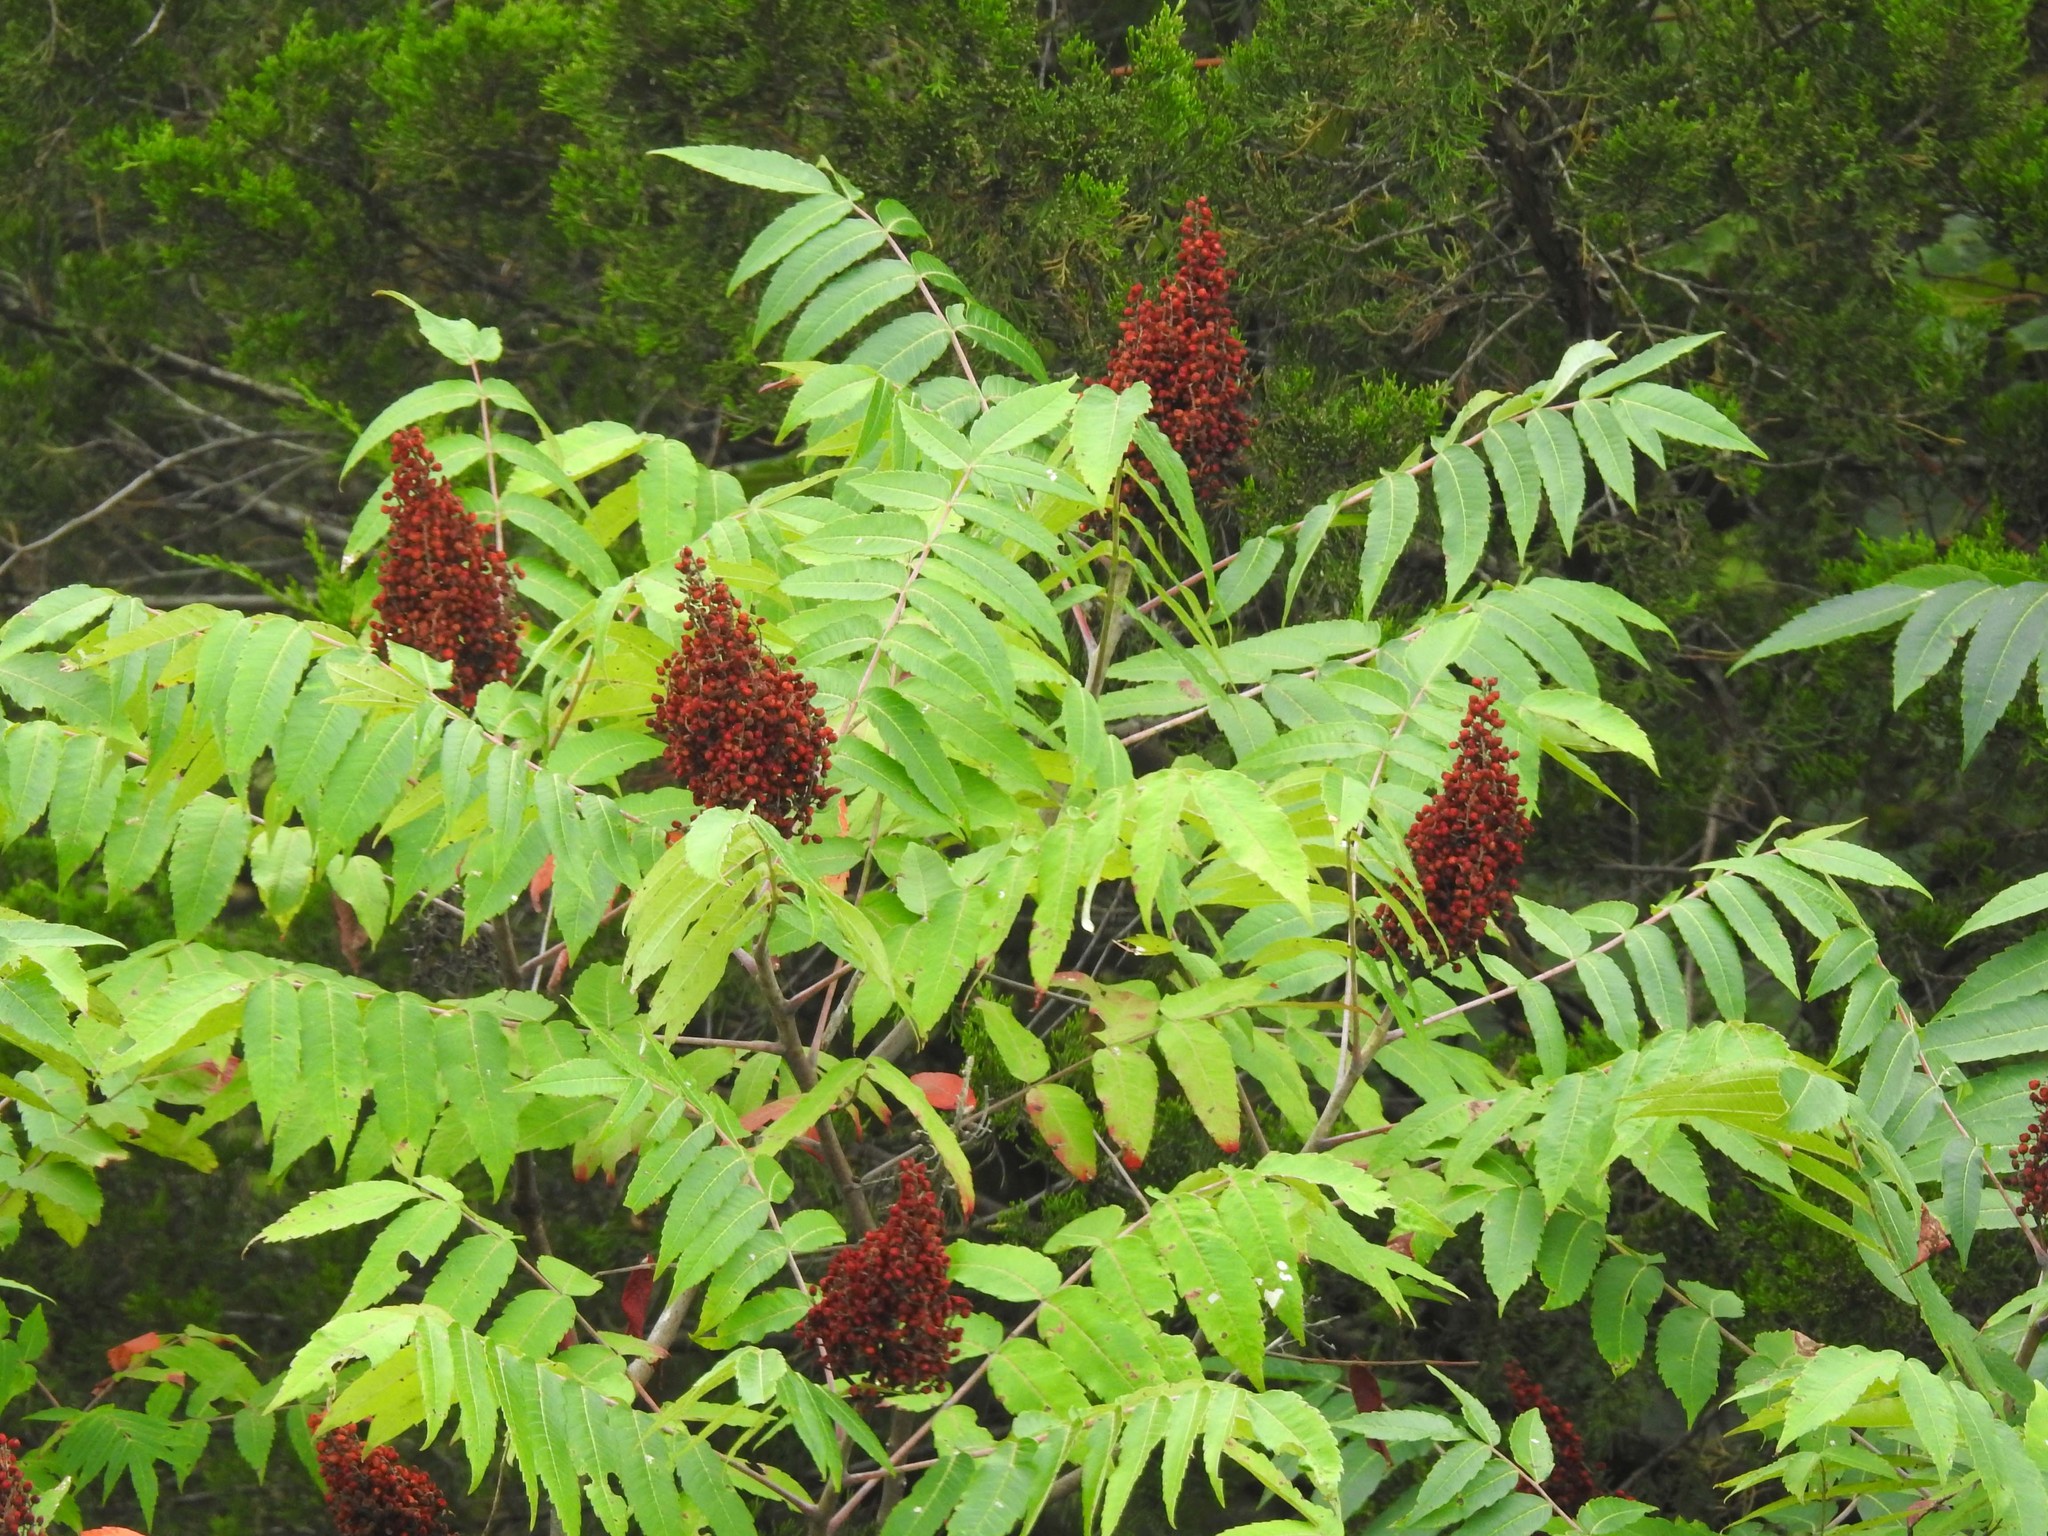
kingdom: Plantae
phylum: Tracheophyta
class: Magnoliopsida
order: Sapindales
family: Anacardiaceae
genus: Rhus
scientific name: Rhus glabra
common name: Scarlet sumac
